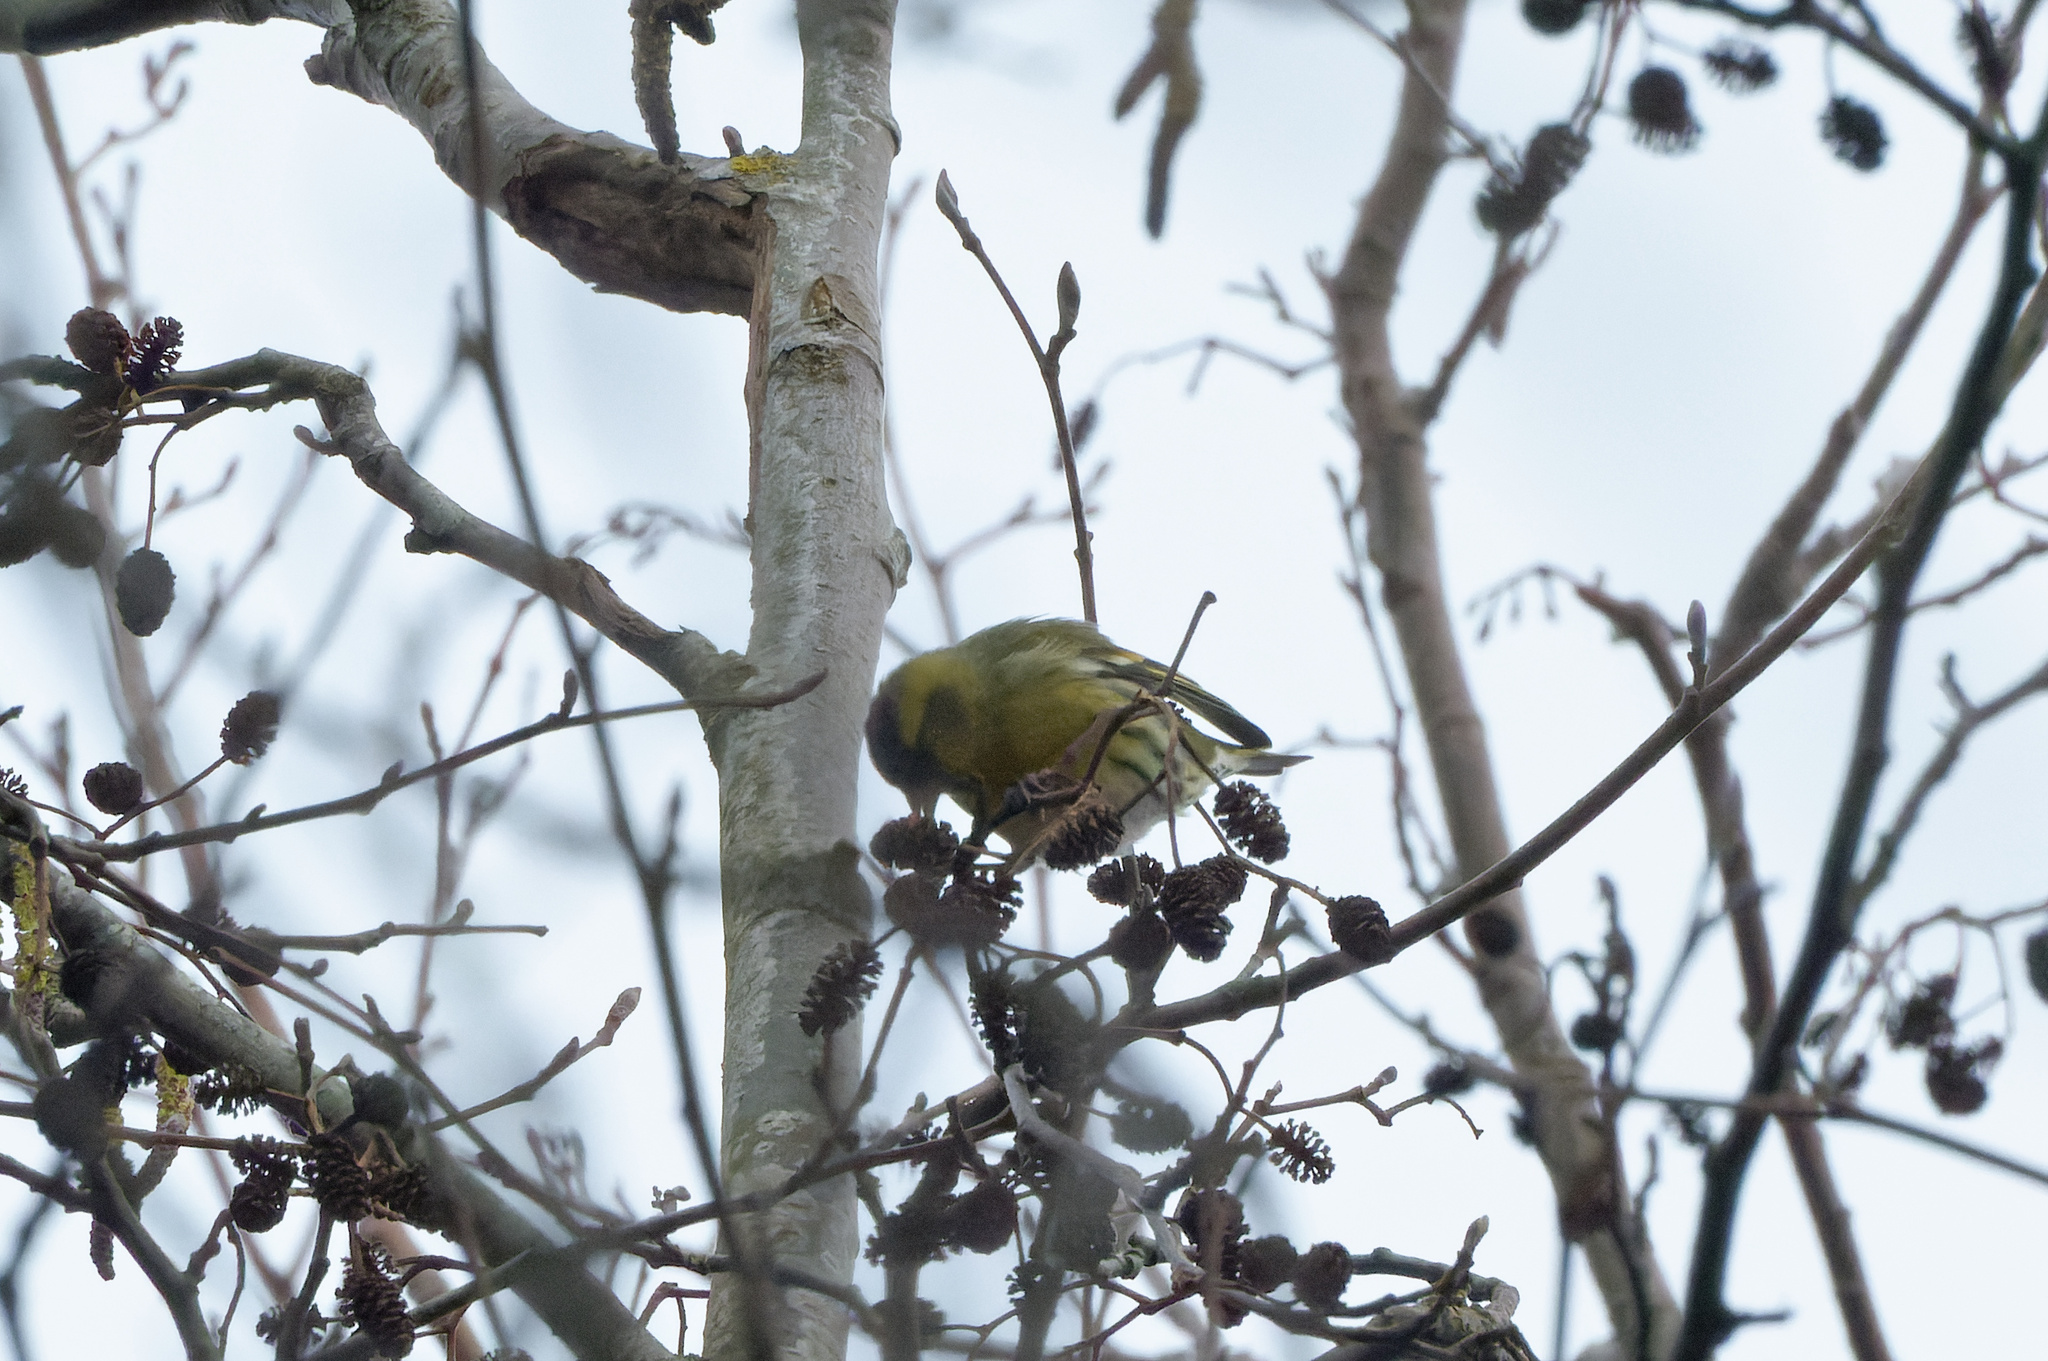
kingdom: Animalia
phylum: Chordata
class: Aves
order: Passeriformes
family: Fringillidae
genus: Spinus
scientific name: Spinus spinus
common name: Eurasian siskin
